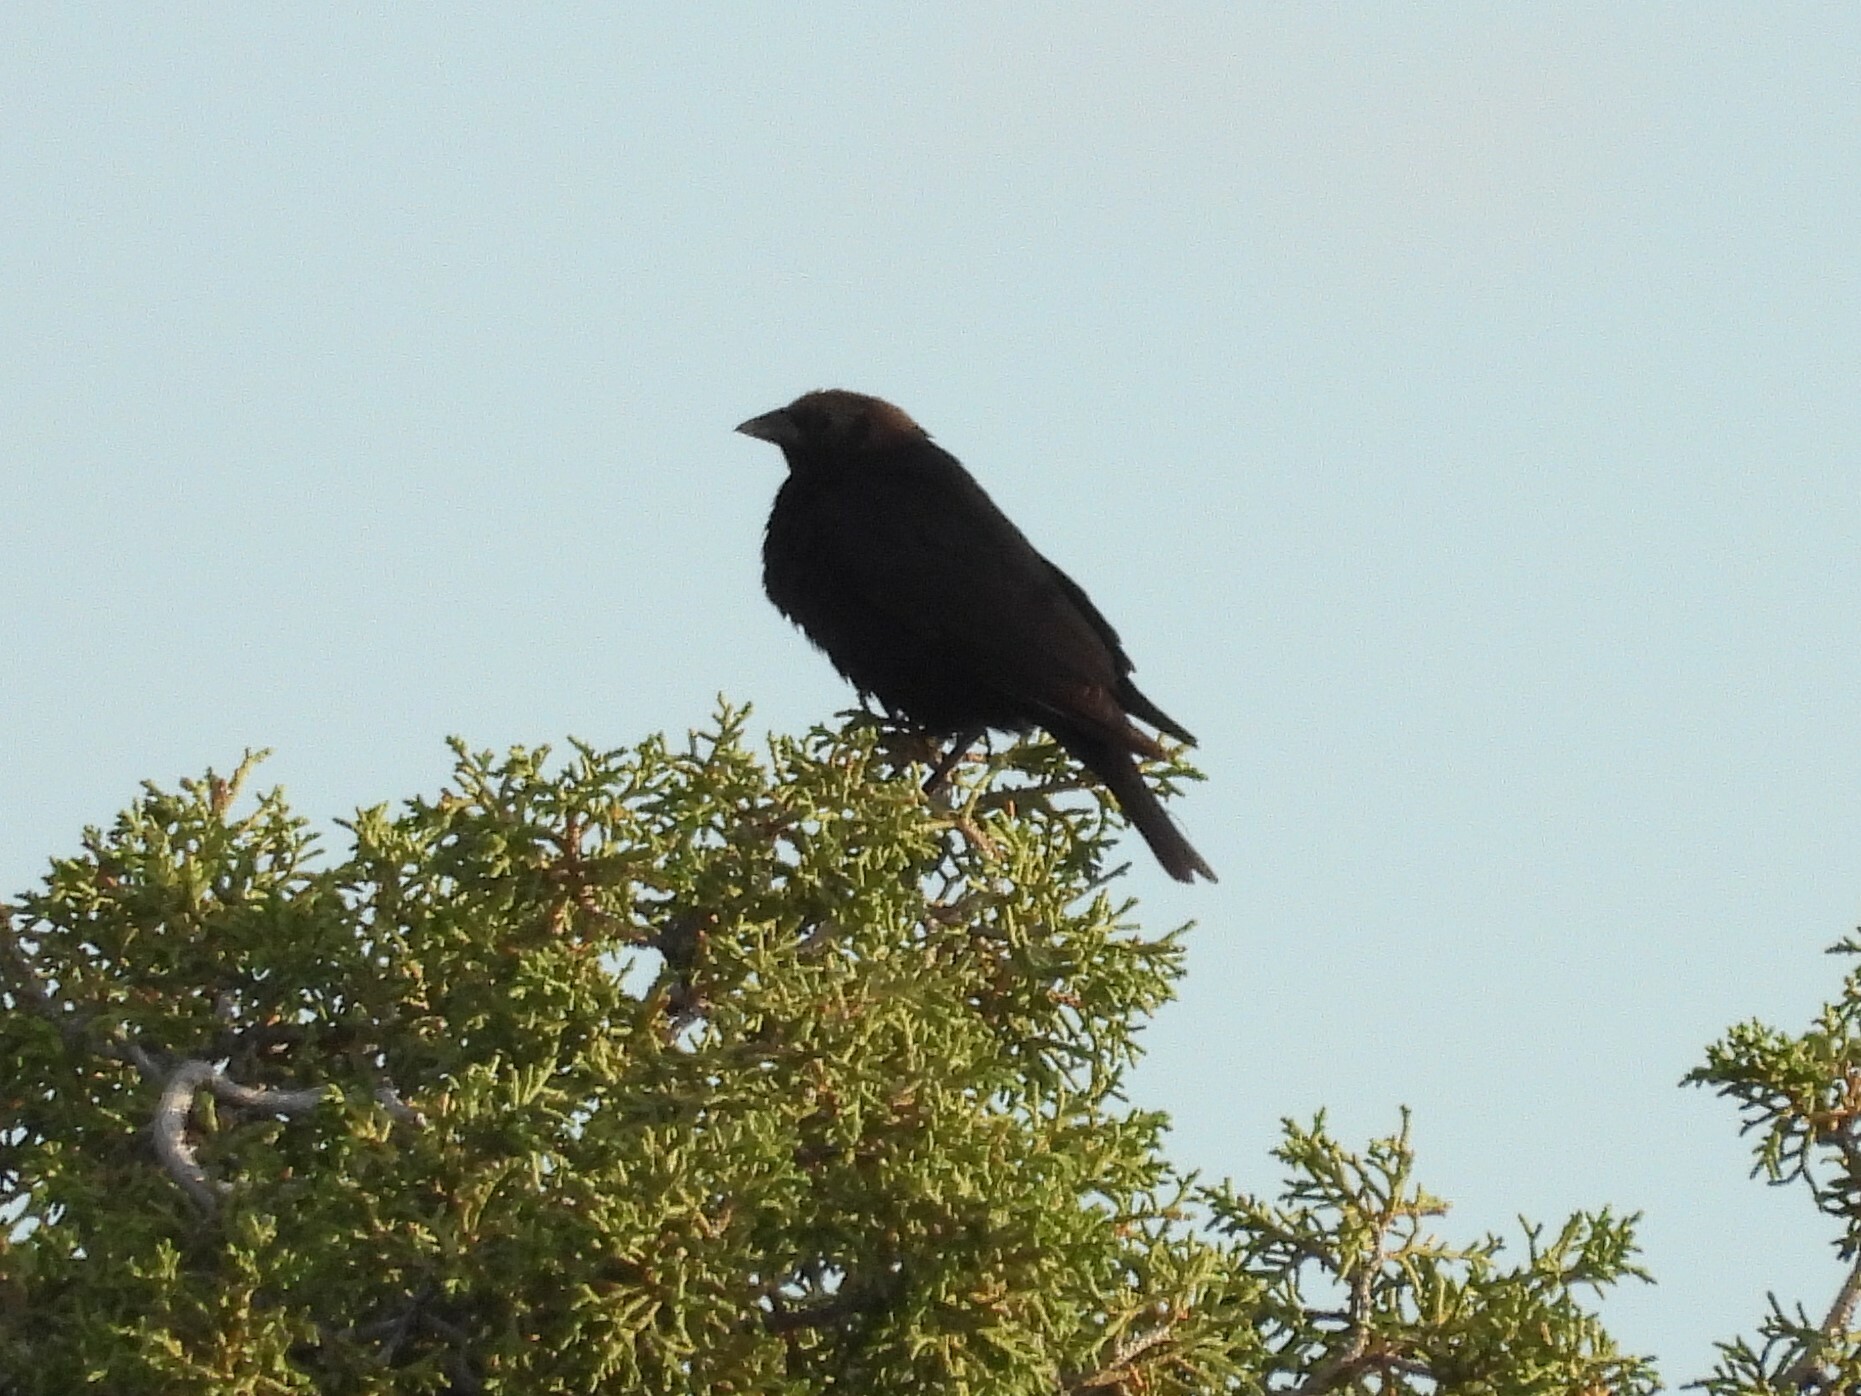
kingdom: Animalia
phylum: Chordata
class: Aves
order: Passeriformes
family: Icteridae
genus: Molothrus
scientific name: Molothrus ater
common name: Brown-headed cowbird
